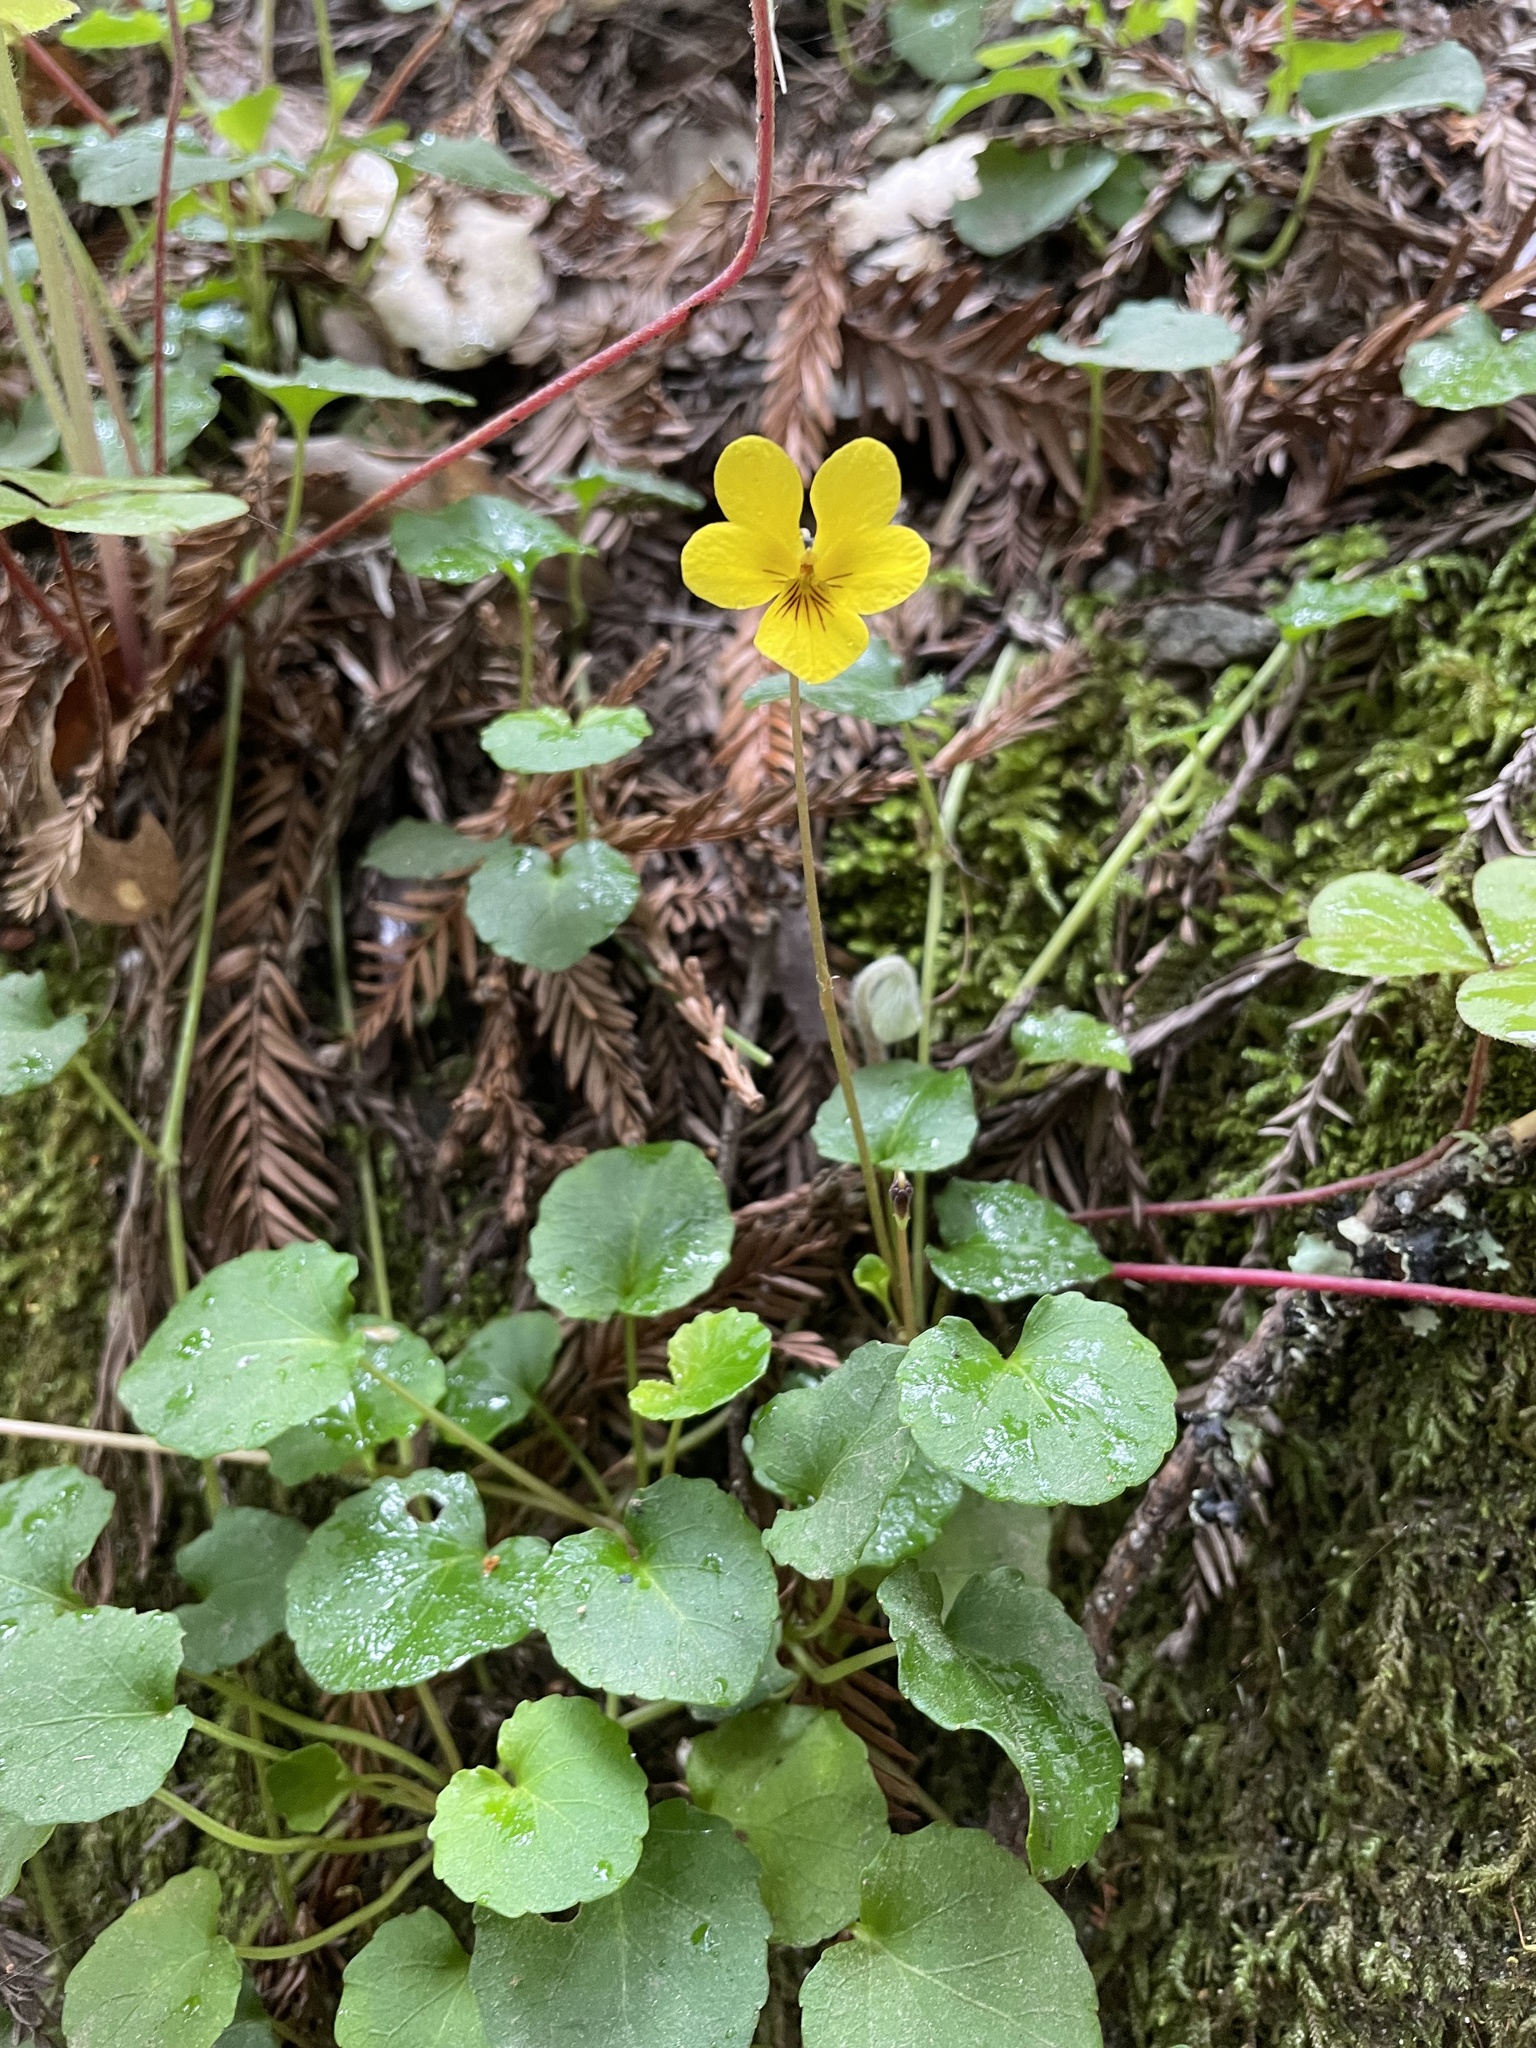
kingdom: Plantae
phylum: Tracheophyta
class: Magnoliopsida
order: Malpighiales
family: Violaceae
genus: Viola
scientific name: Viola sempervirens
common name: Evergreen violet
